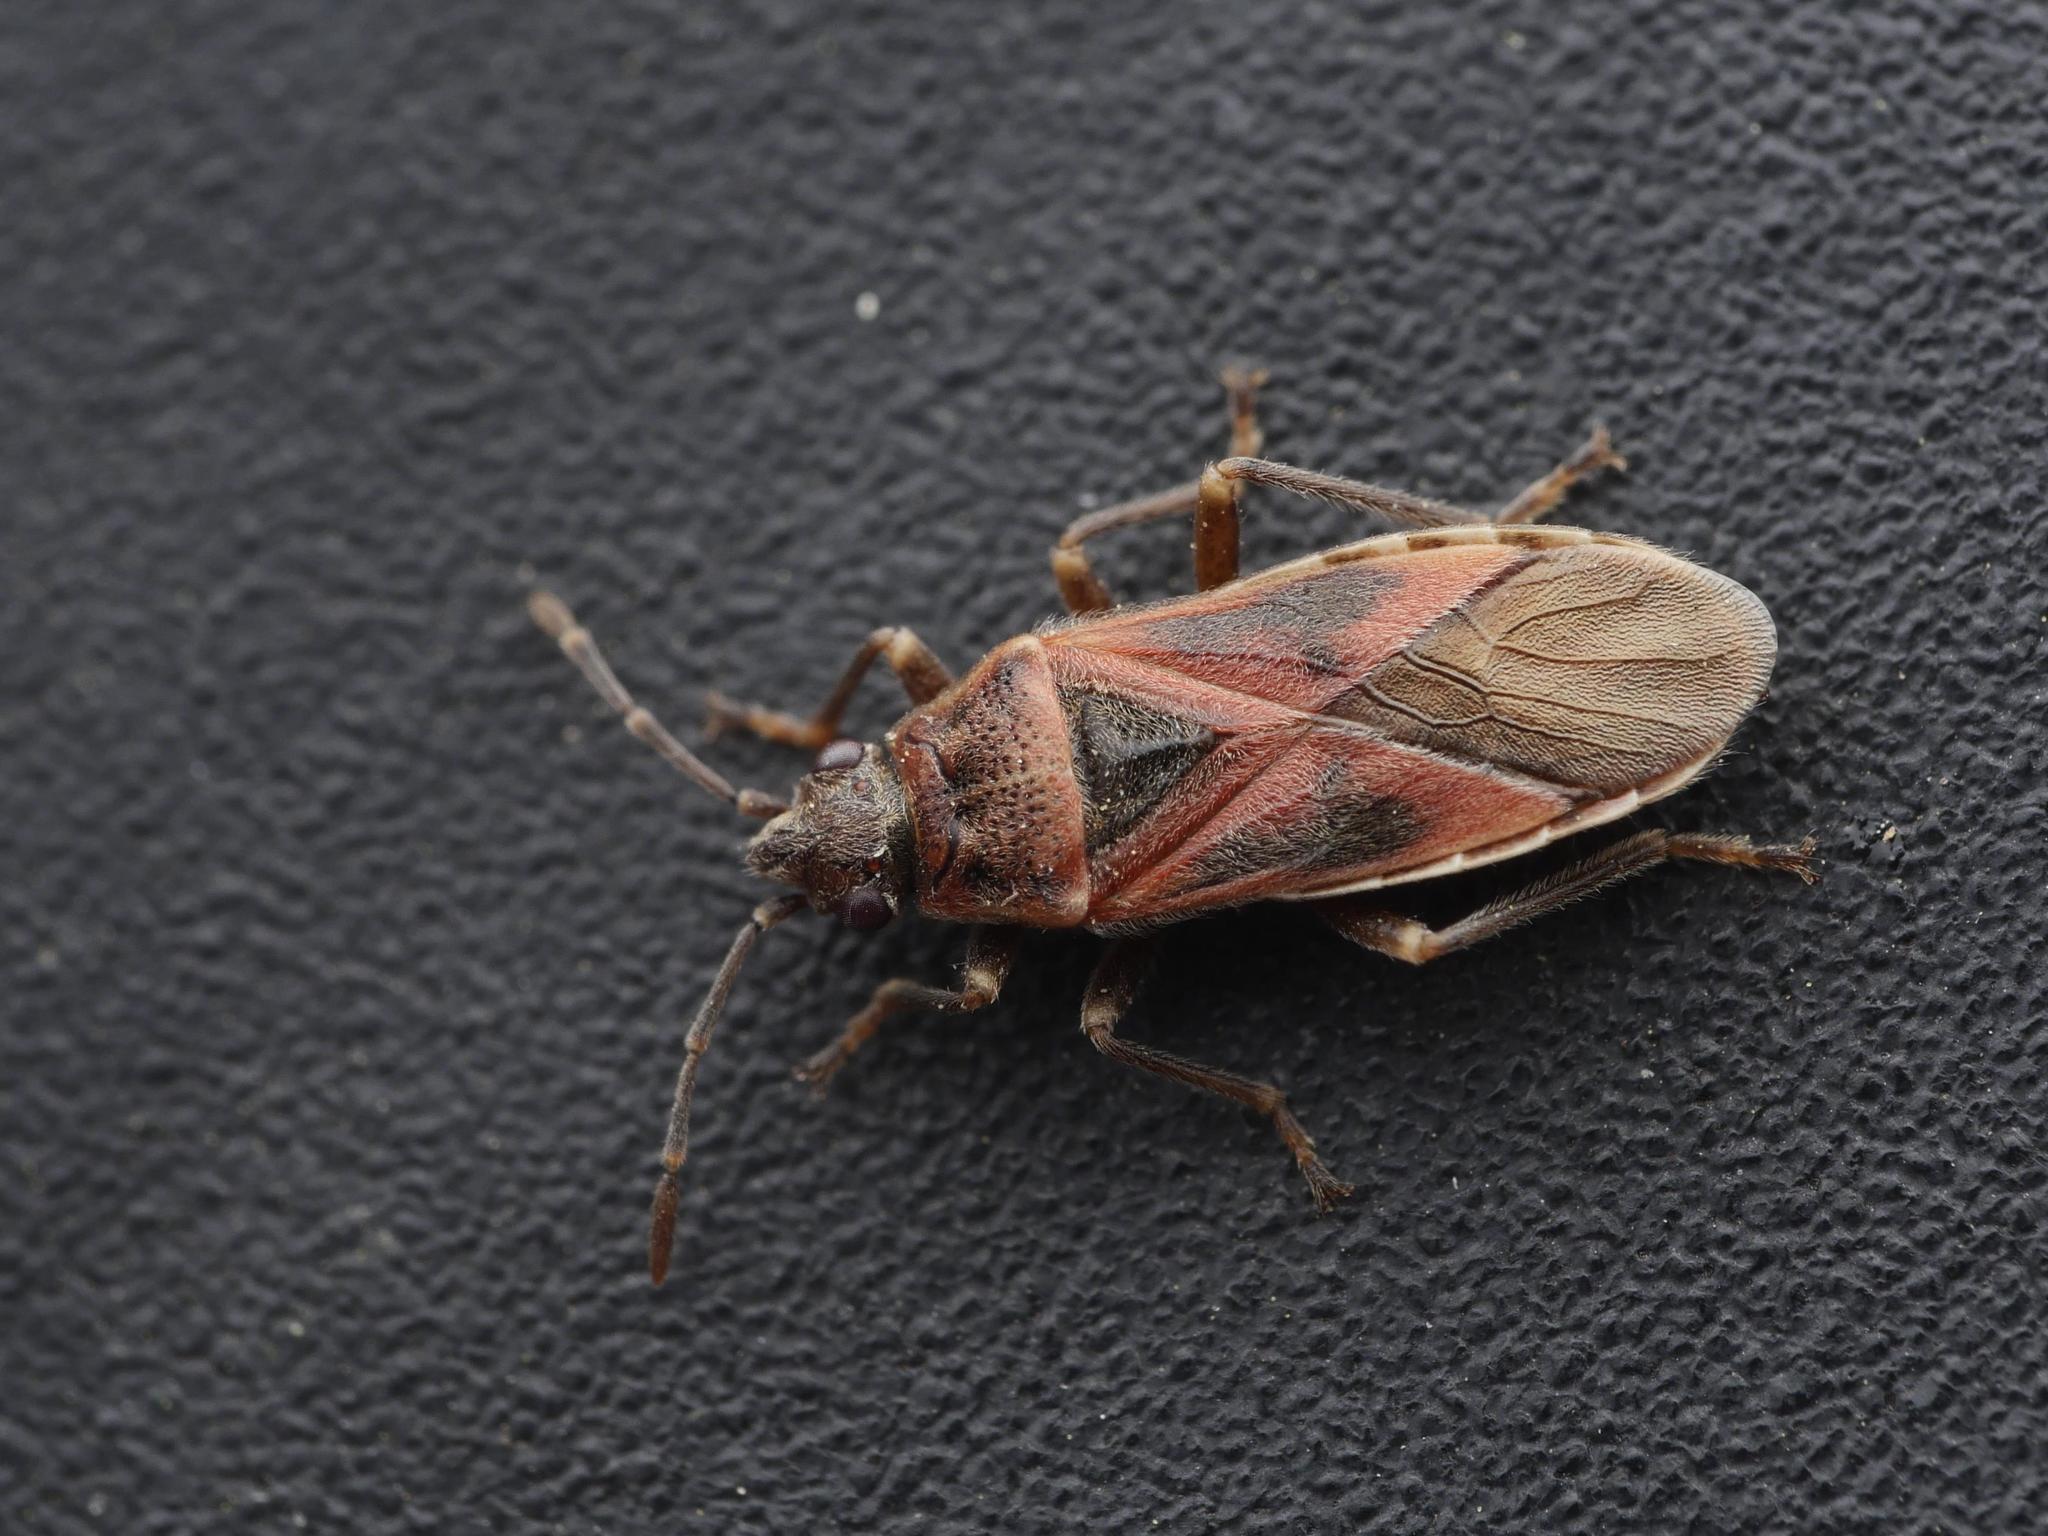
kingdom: Animalia
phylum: Arthropoda
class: Insecta
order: Hemiptera
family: Lygaeidae
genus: Arocatus
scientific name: Arocatus roeselii
